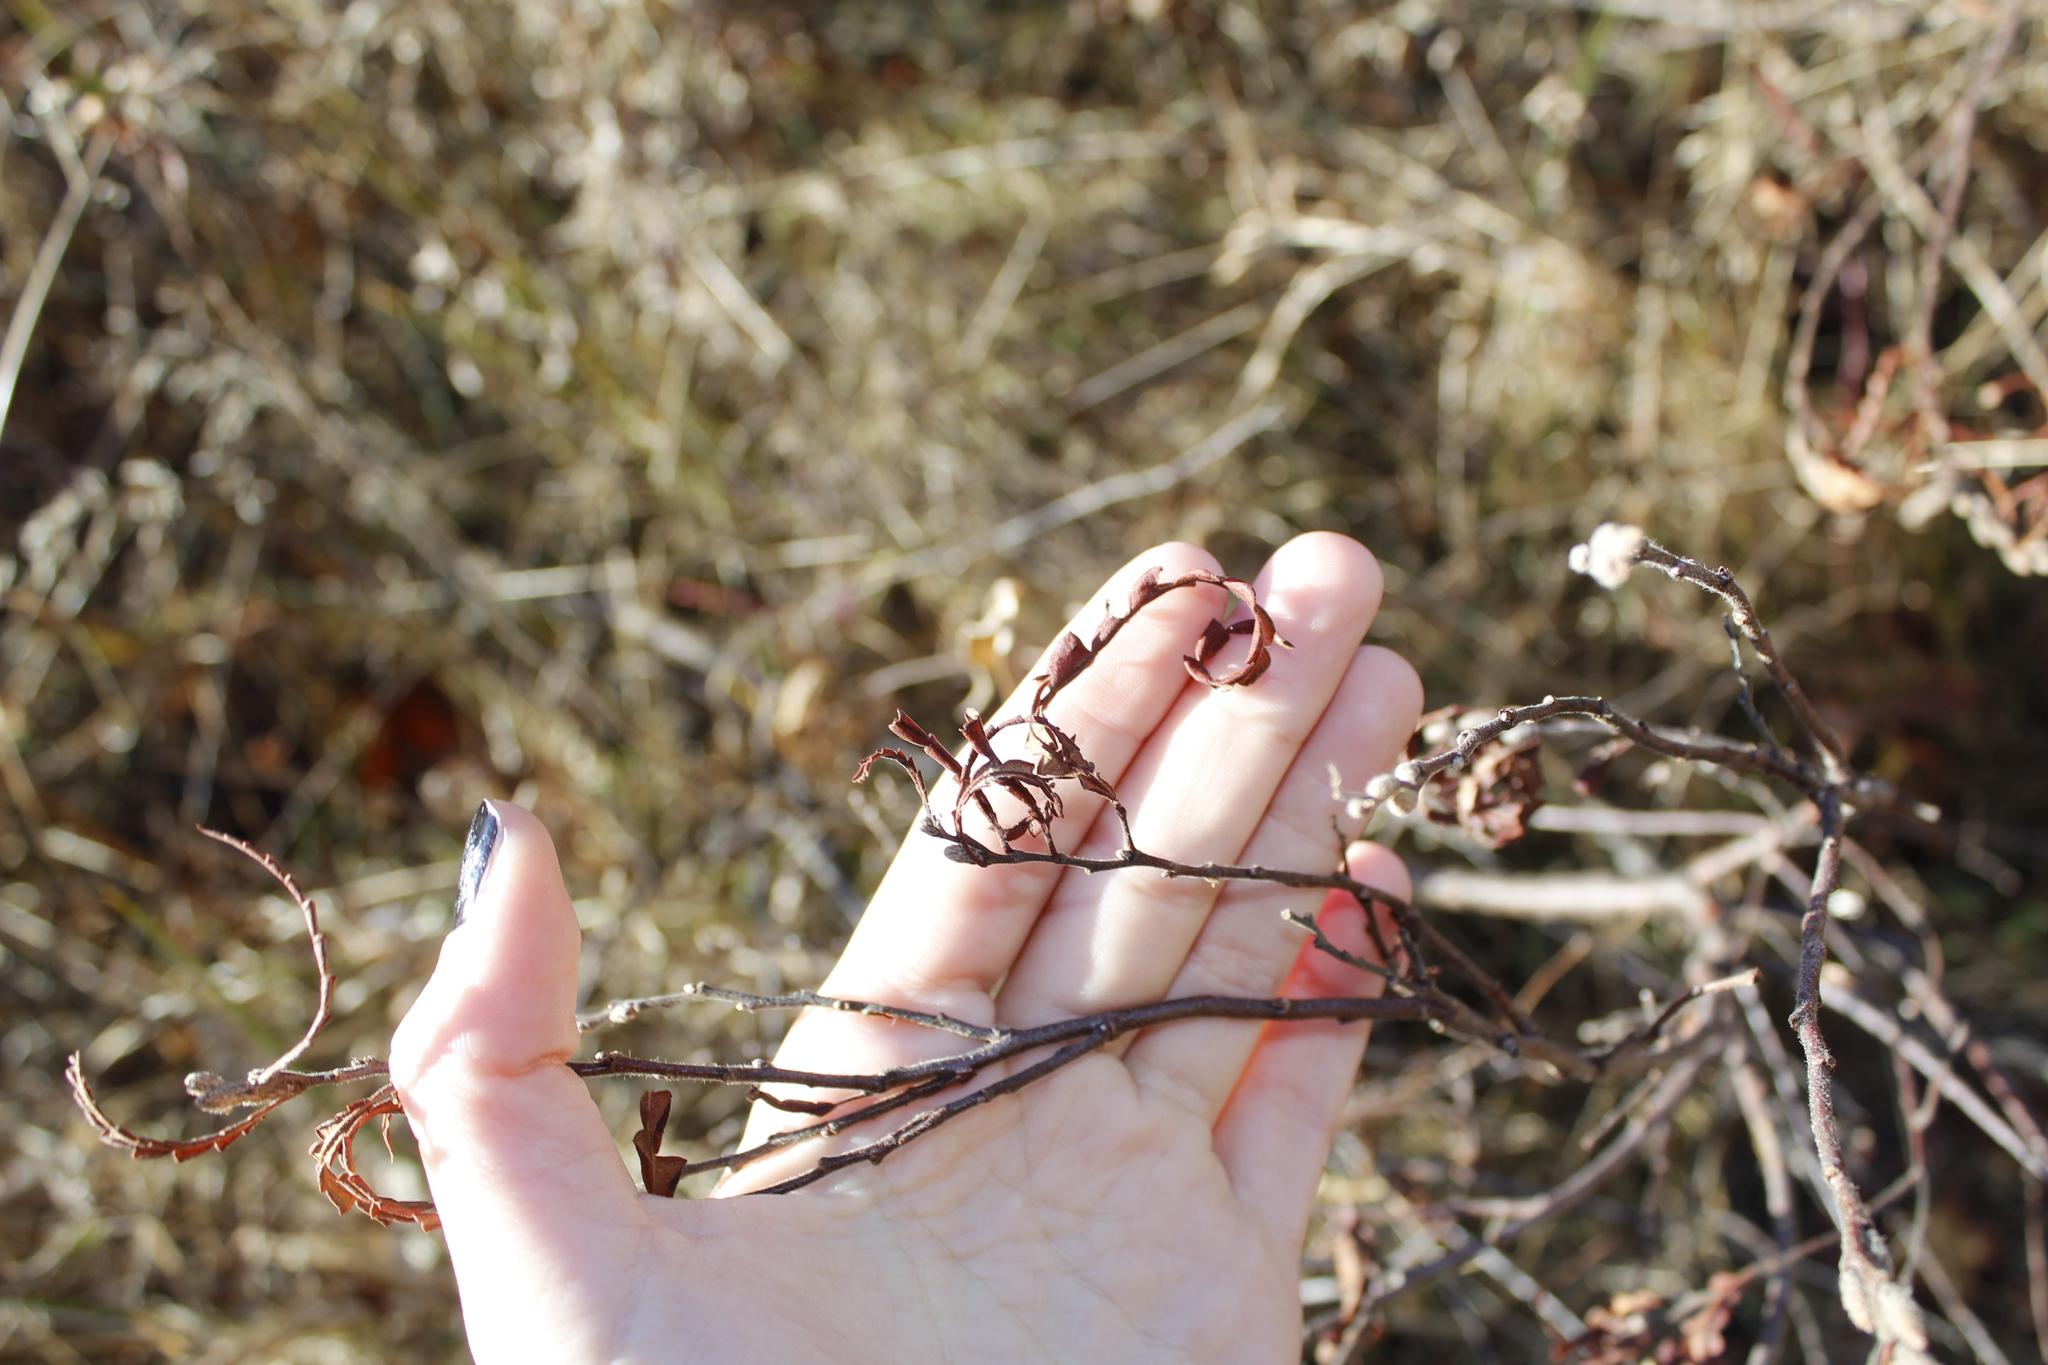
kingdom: Plantae
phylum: Tracheophyta
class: Magnoliopsida
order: Fagales
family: Myricaceae
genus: Comptonia
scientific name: Comptonia peregrina
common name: Sweet-fern
